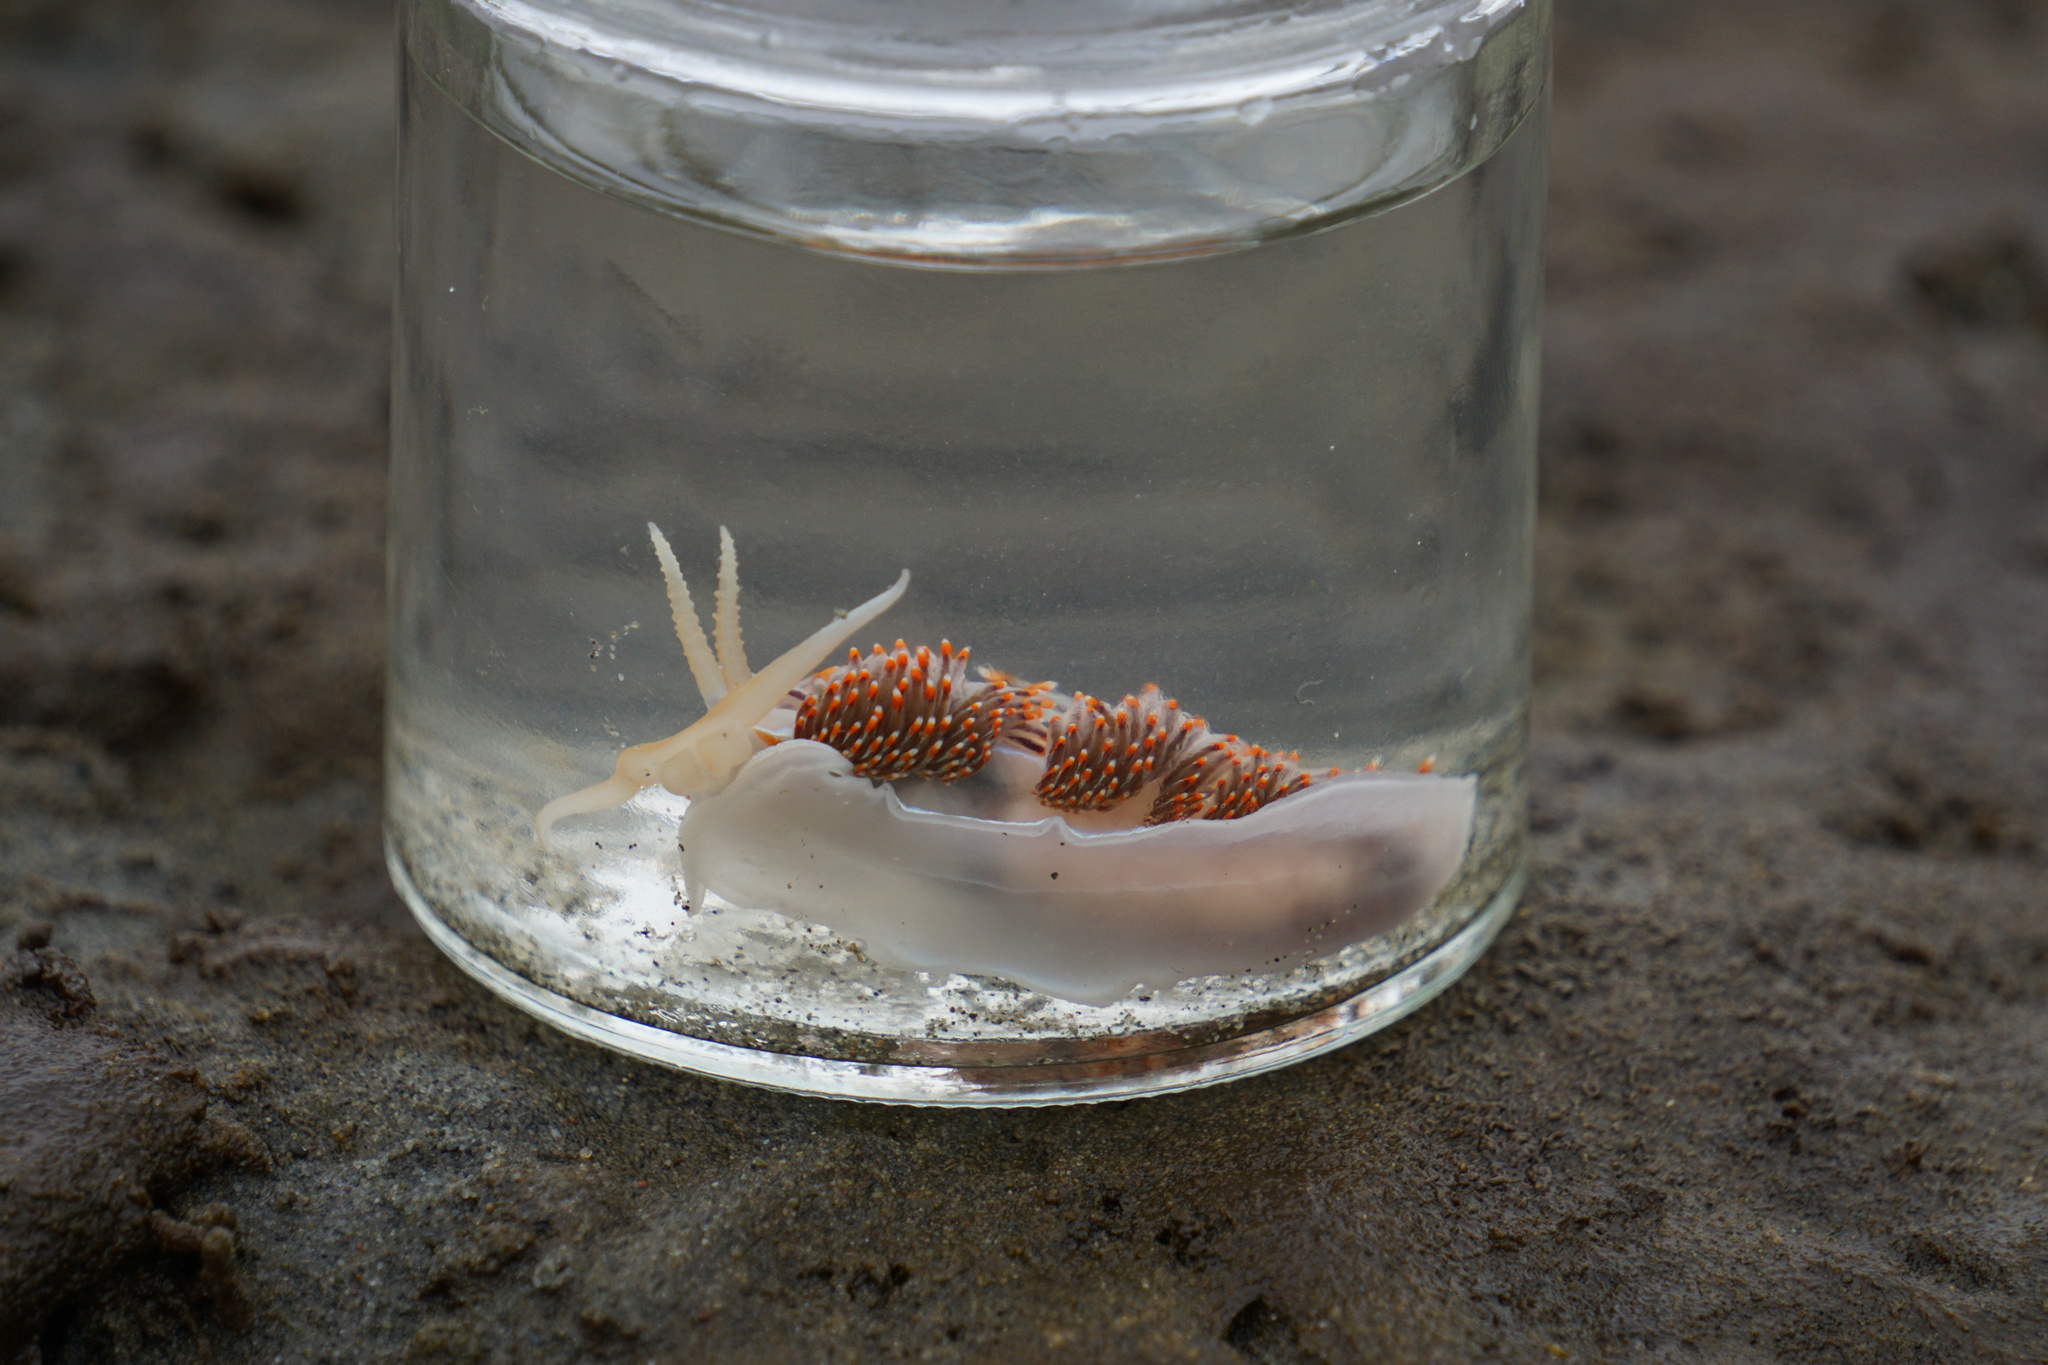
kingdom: Animalia
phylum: Mollusca
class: Gastropoda
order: Nudibranchia
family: Myrrhinidae
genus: Hermissenda
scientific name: Hermissenda opalescens
